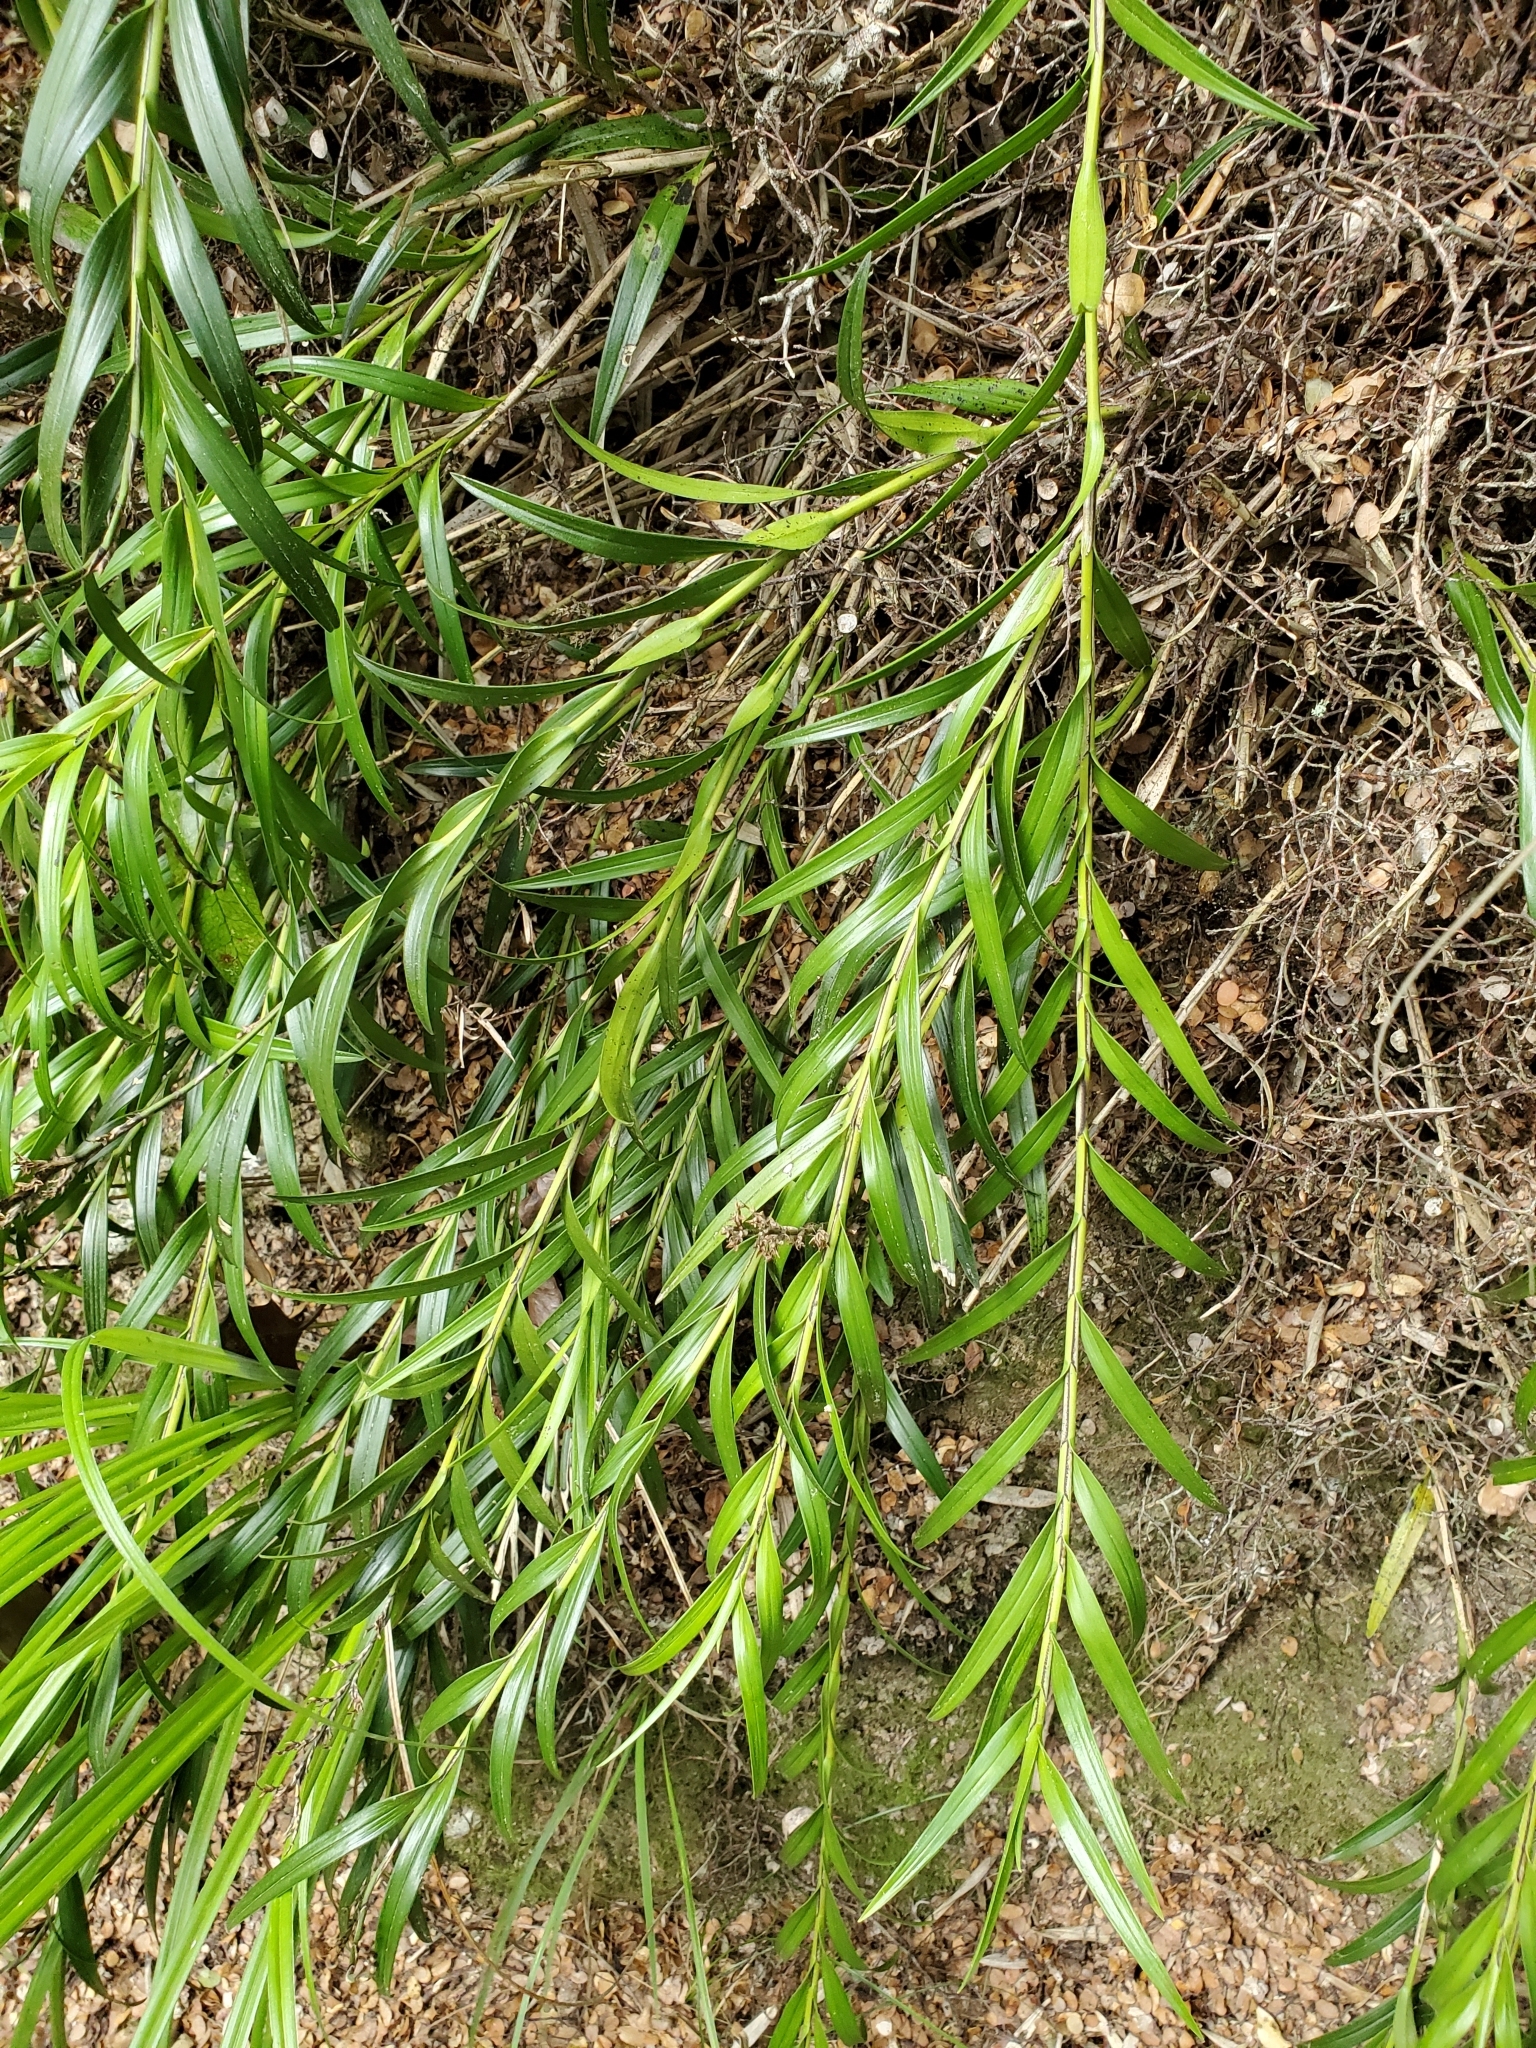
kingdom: Plantae
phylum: Tracheophyta
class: Liliopsida
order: Asparagales
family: Orchidaceae
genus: Earina
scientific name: Earina autumnalis
